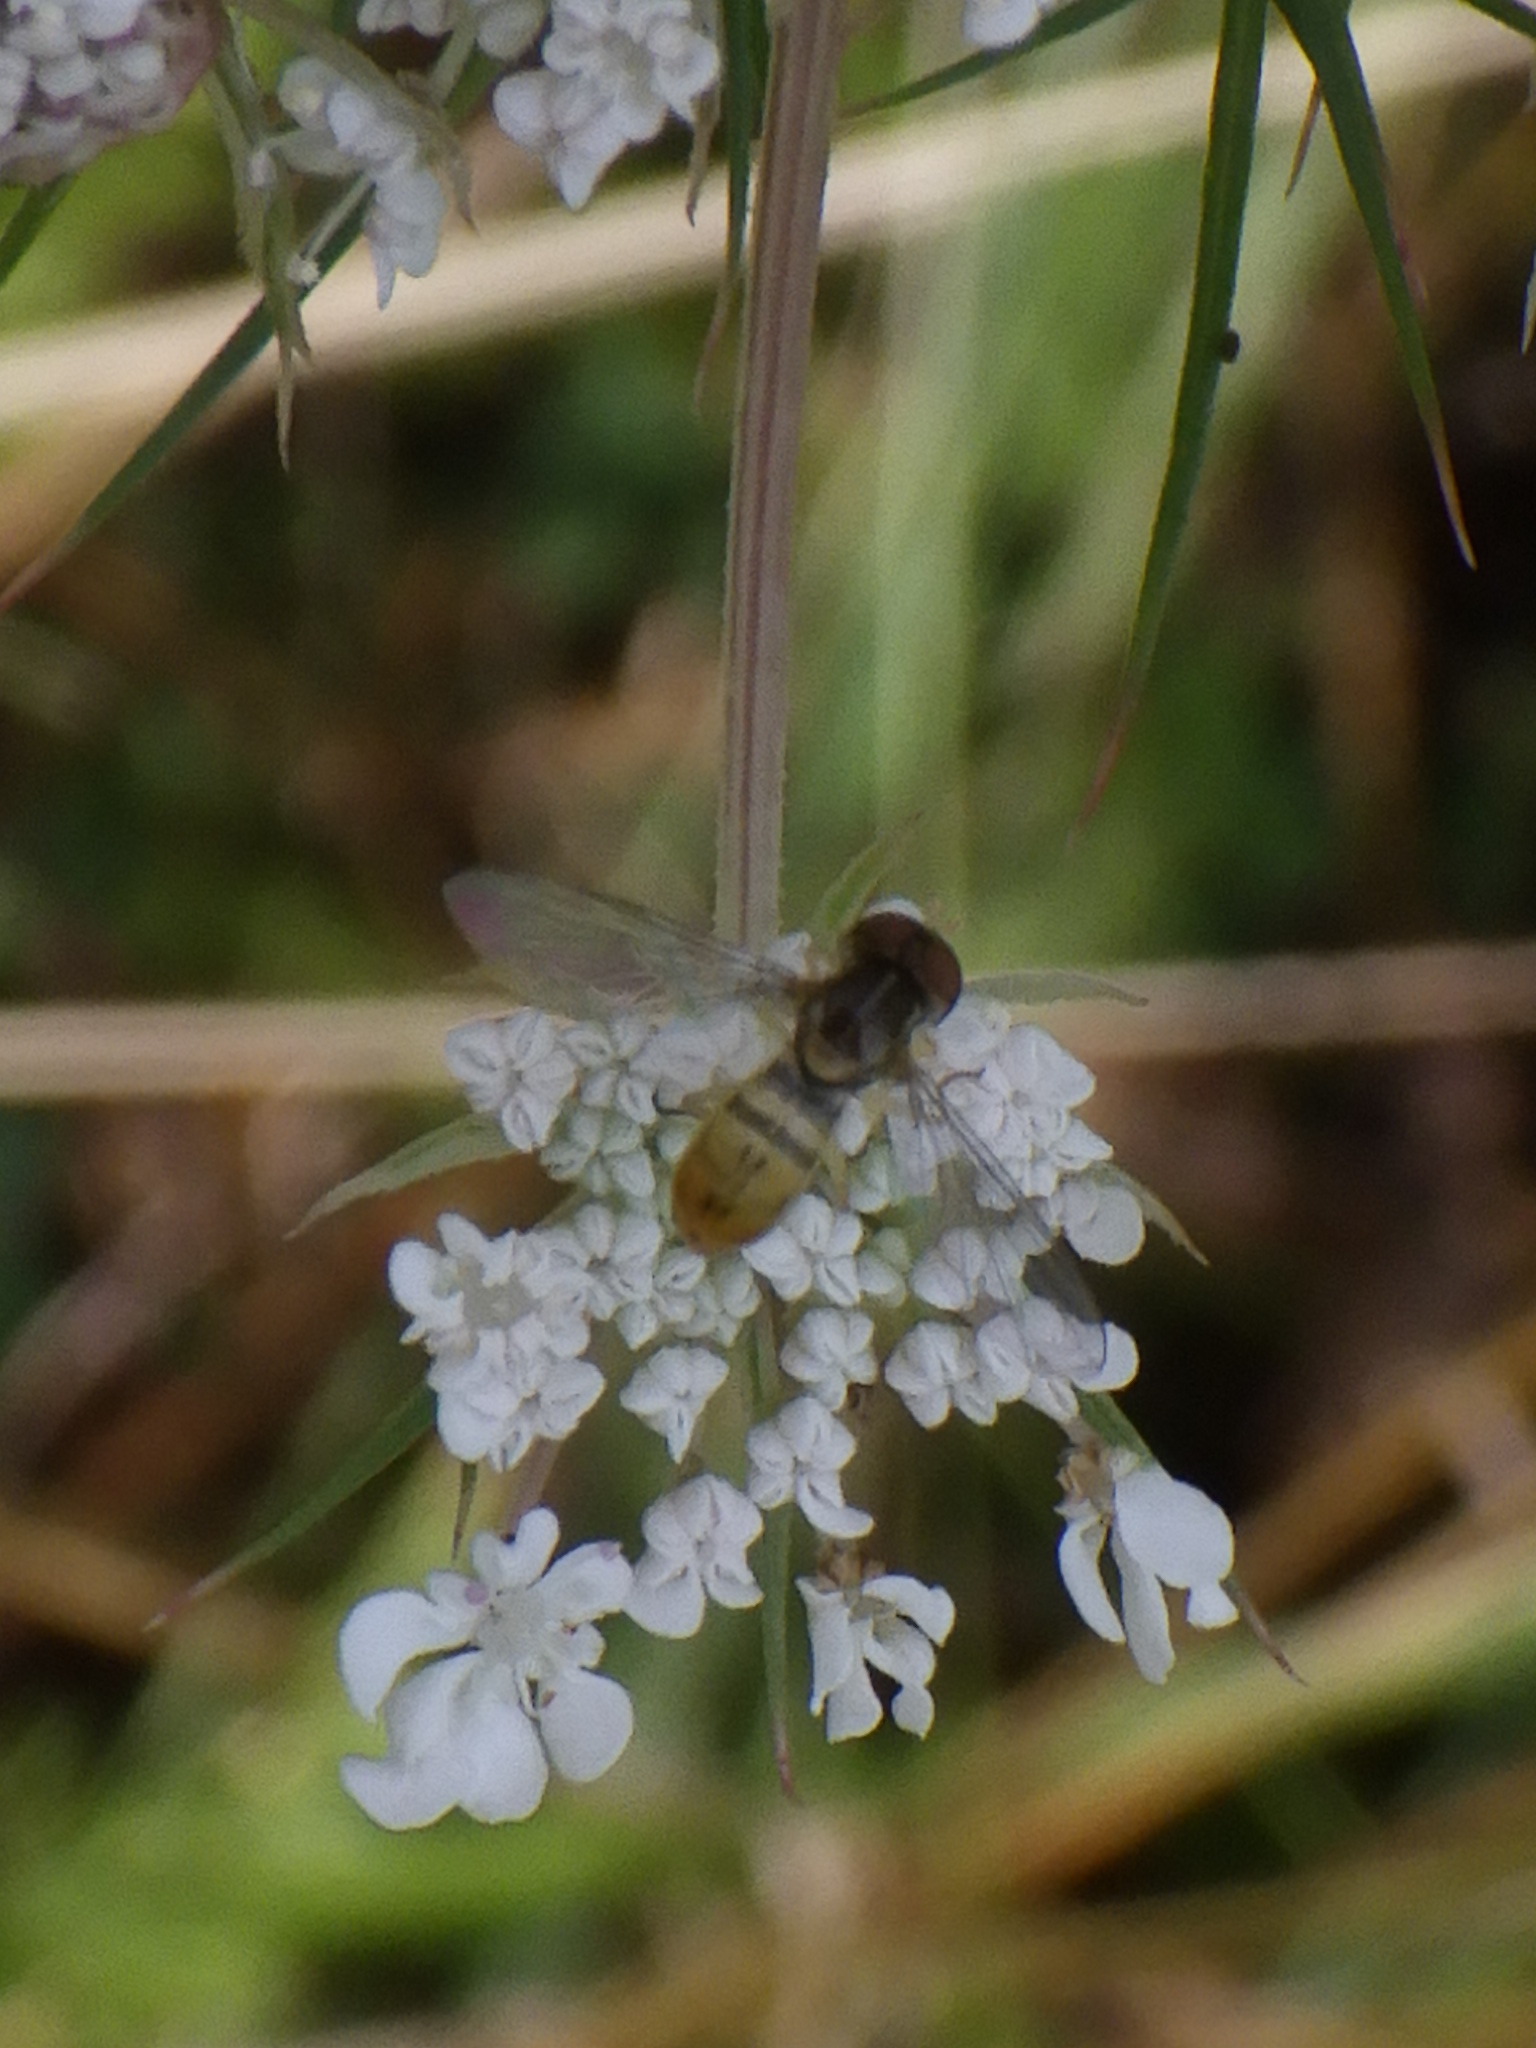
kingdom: Animalia
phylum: Arthropoda
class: Insecta
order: Diptera
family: Syrphidae
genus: Toxomerus
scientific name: Toxomerus marginatus
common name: Syrphid fly
